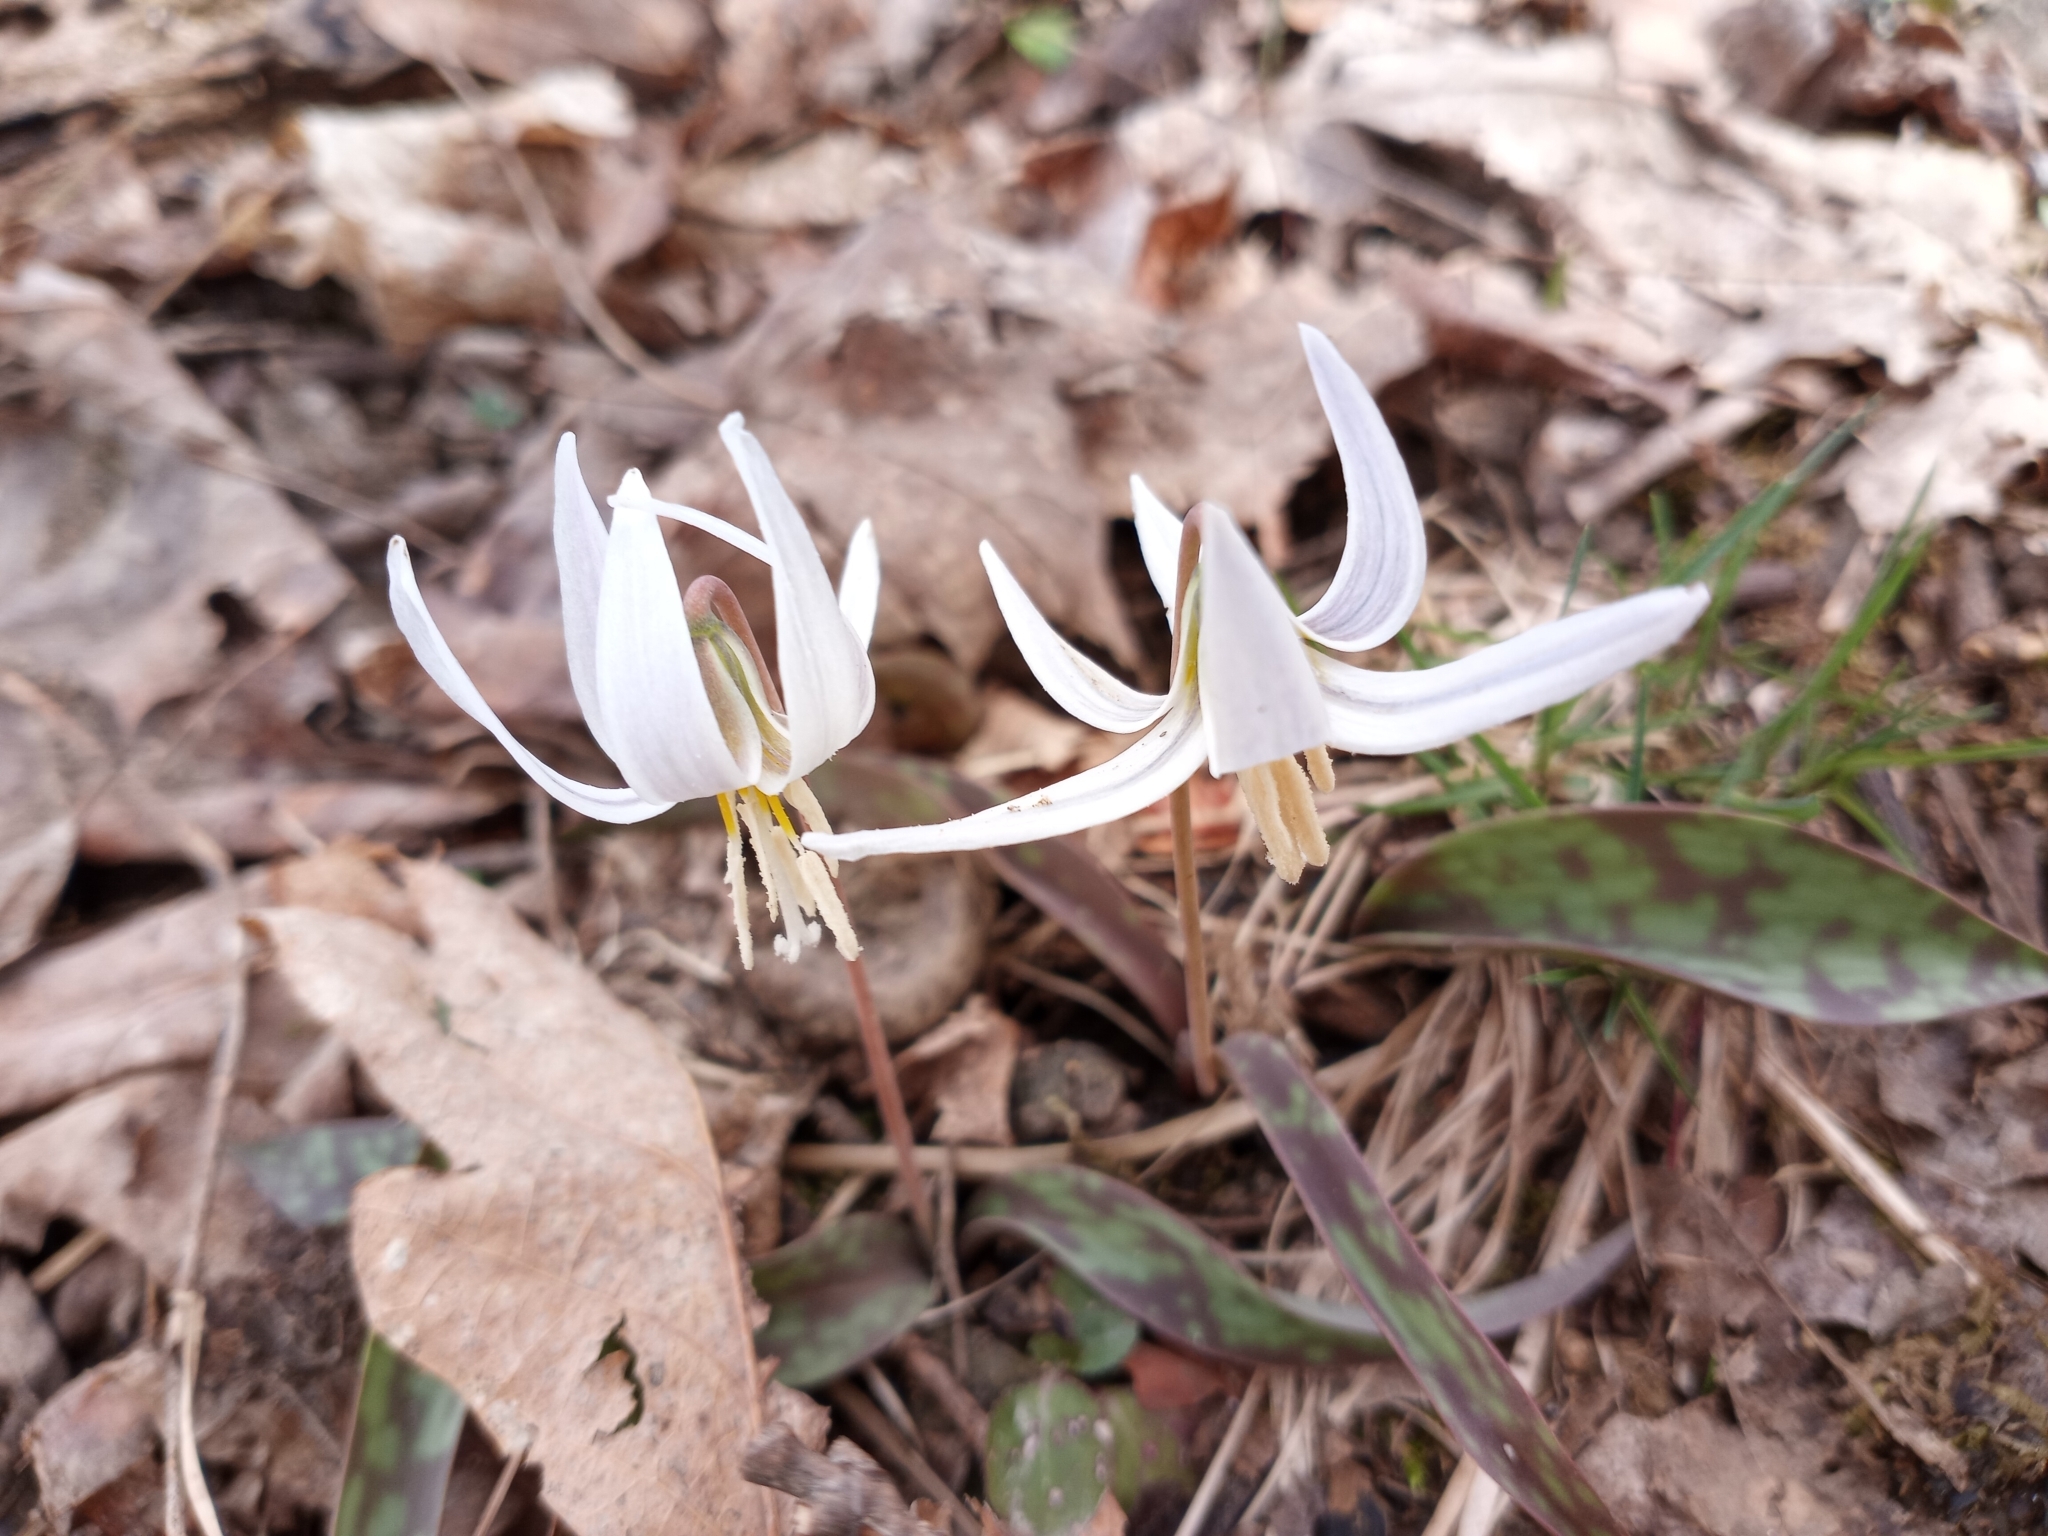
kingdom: Plantae
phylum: Tracheophyta
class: Liliopsida
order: Liliales
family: Liliaceae
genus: Erythronium
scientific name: Erythronium albidum
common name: White trout-lily
